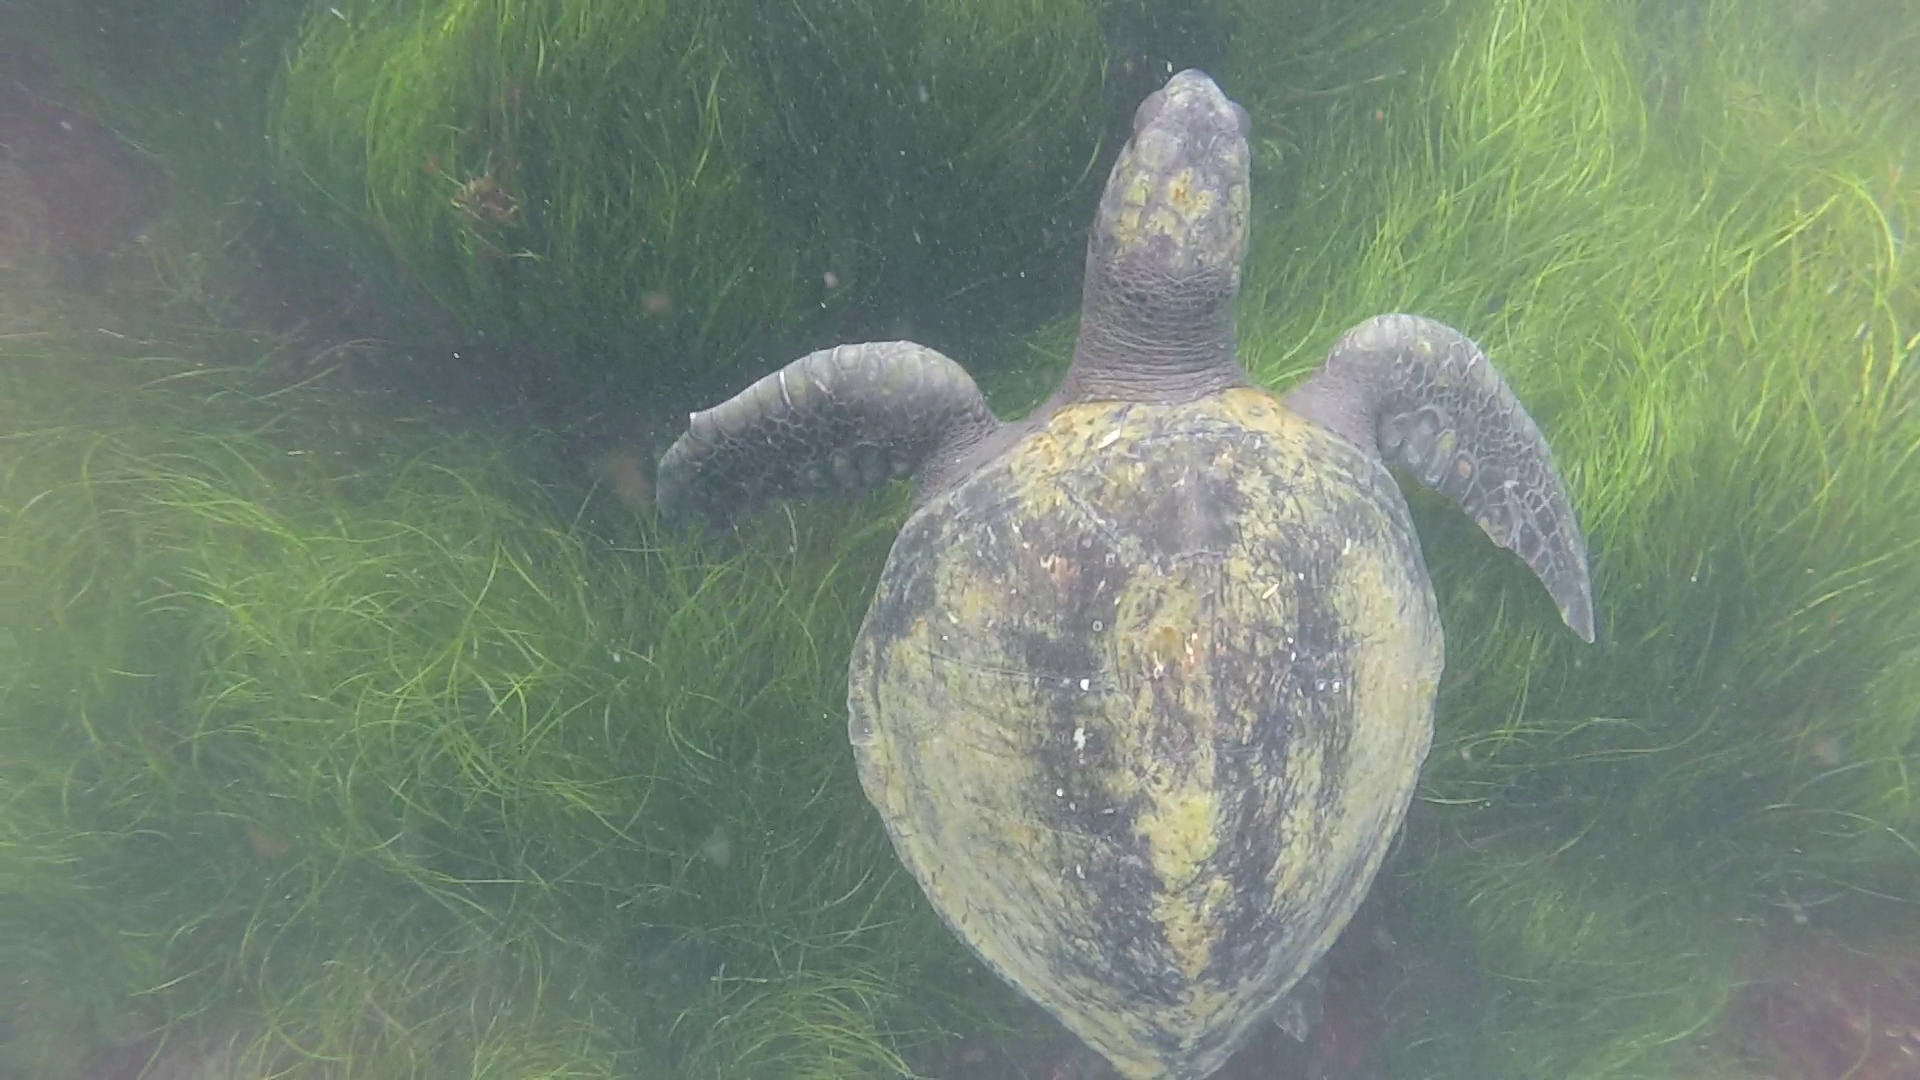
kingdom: Animalia
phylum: Chordata
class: Testudines
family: Cheloniidae
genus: Chelonia
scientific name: Chelonia mydas
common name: Green turtle
